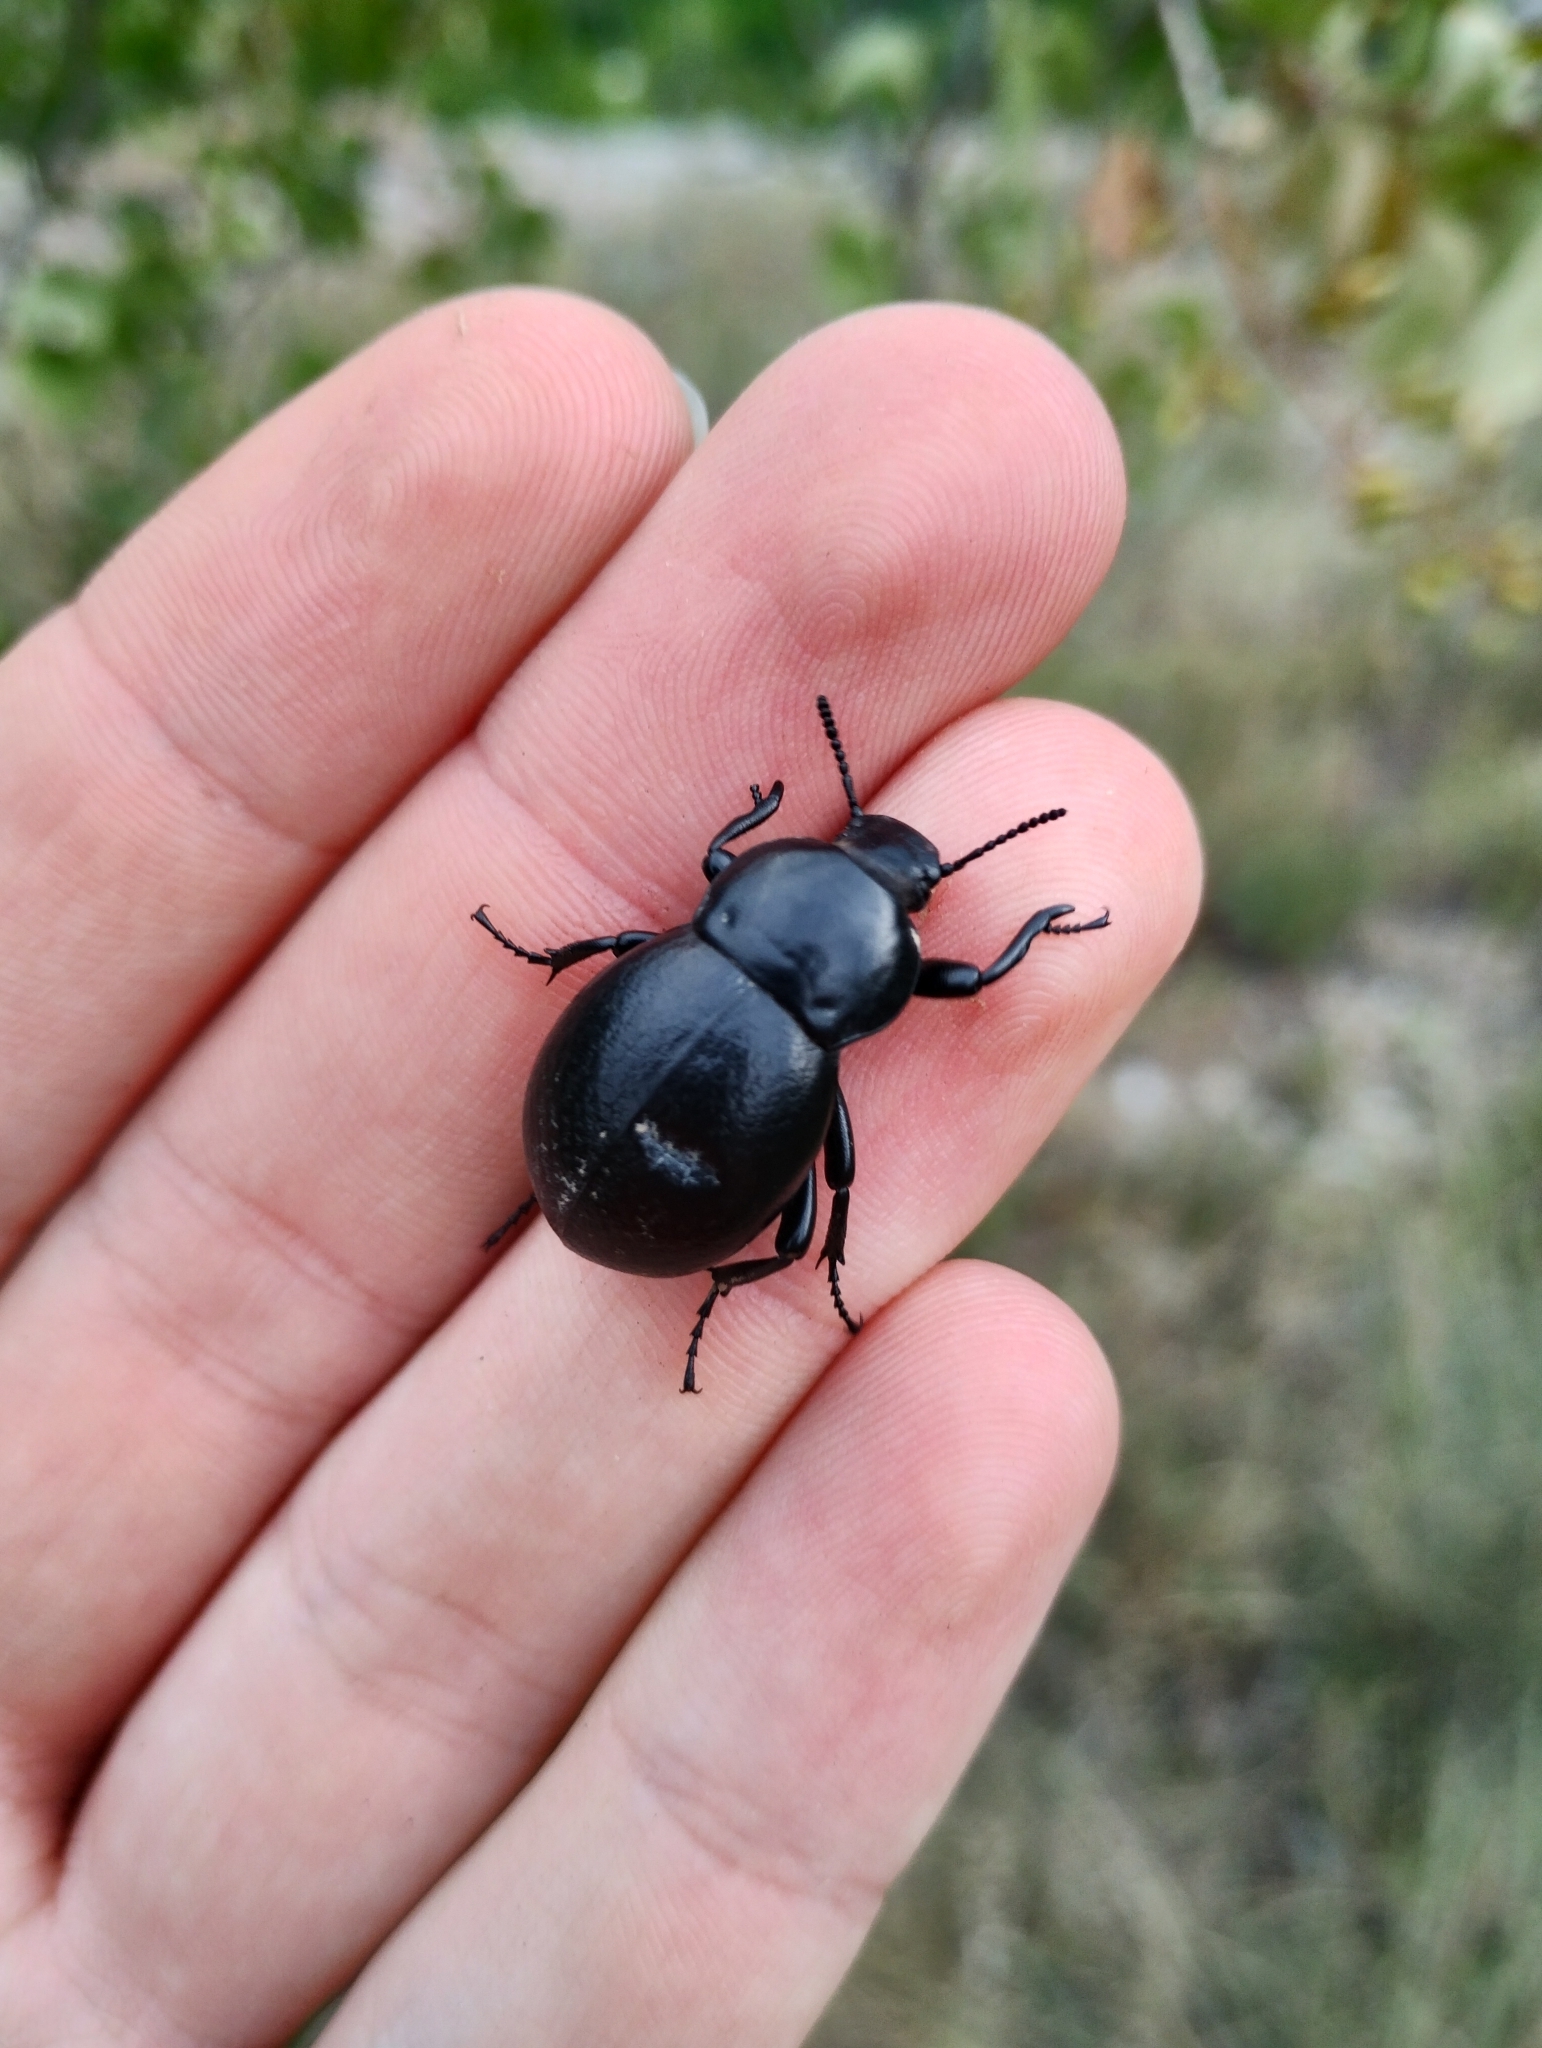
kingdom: Animalia
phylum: Arthropoda
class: Insecta
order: Coleoptera
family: Tenebrionidae
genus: Gnaptor
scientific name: Gnaptor spinimanus
